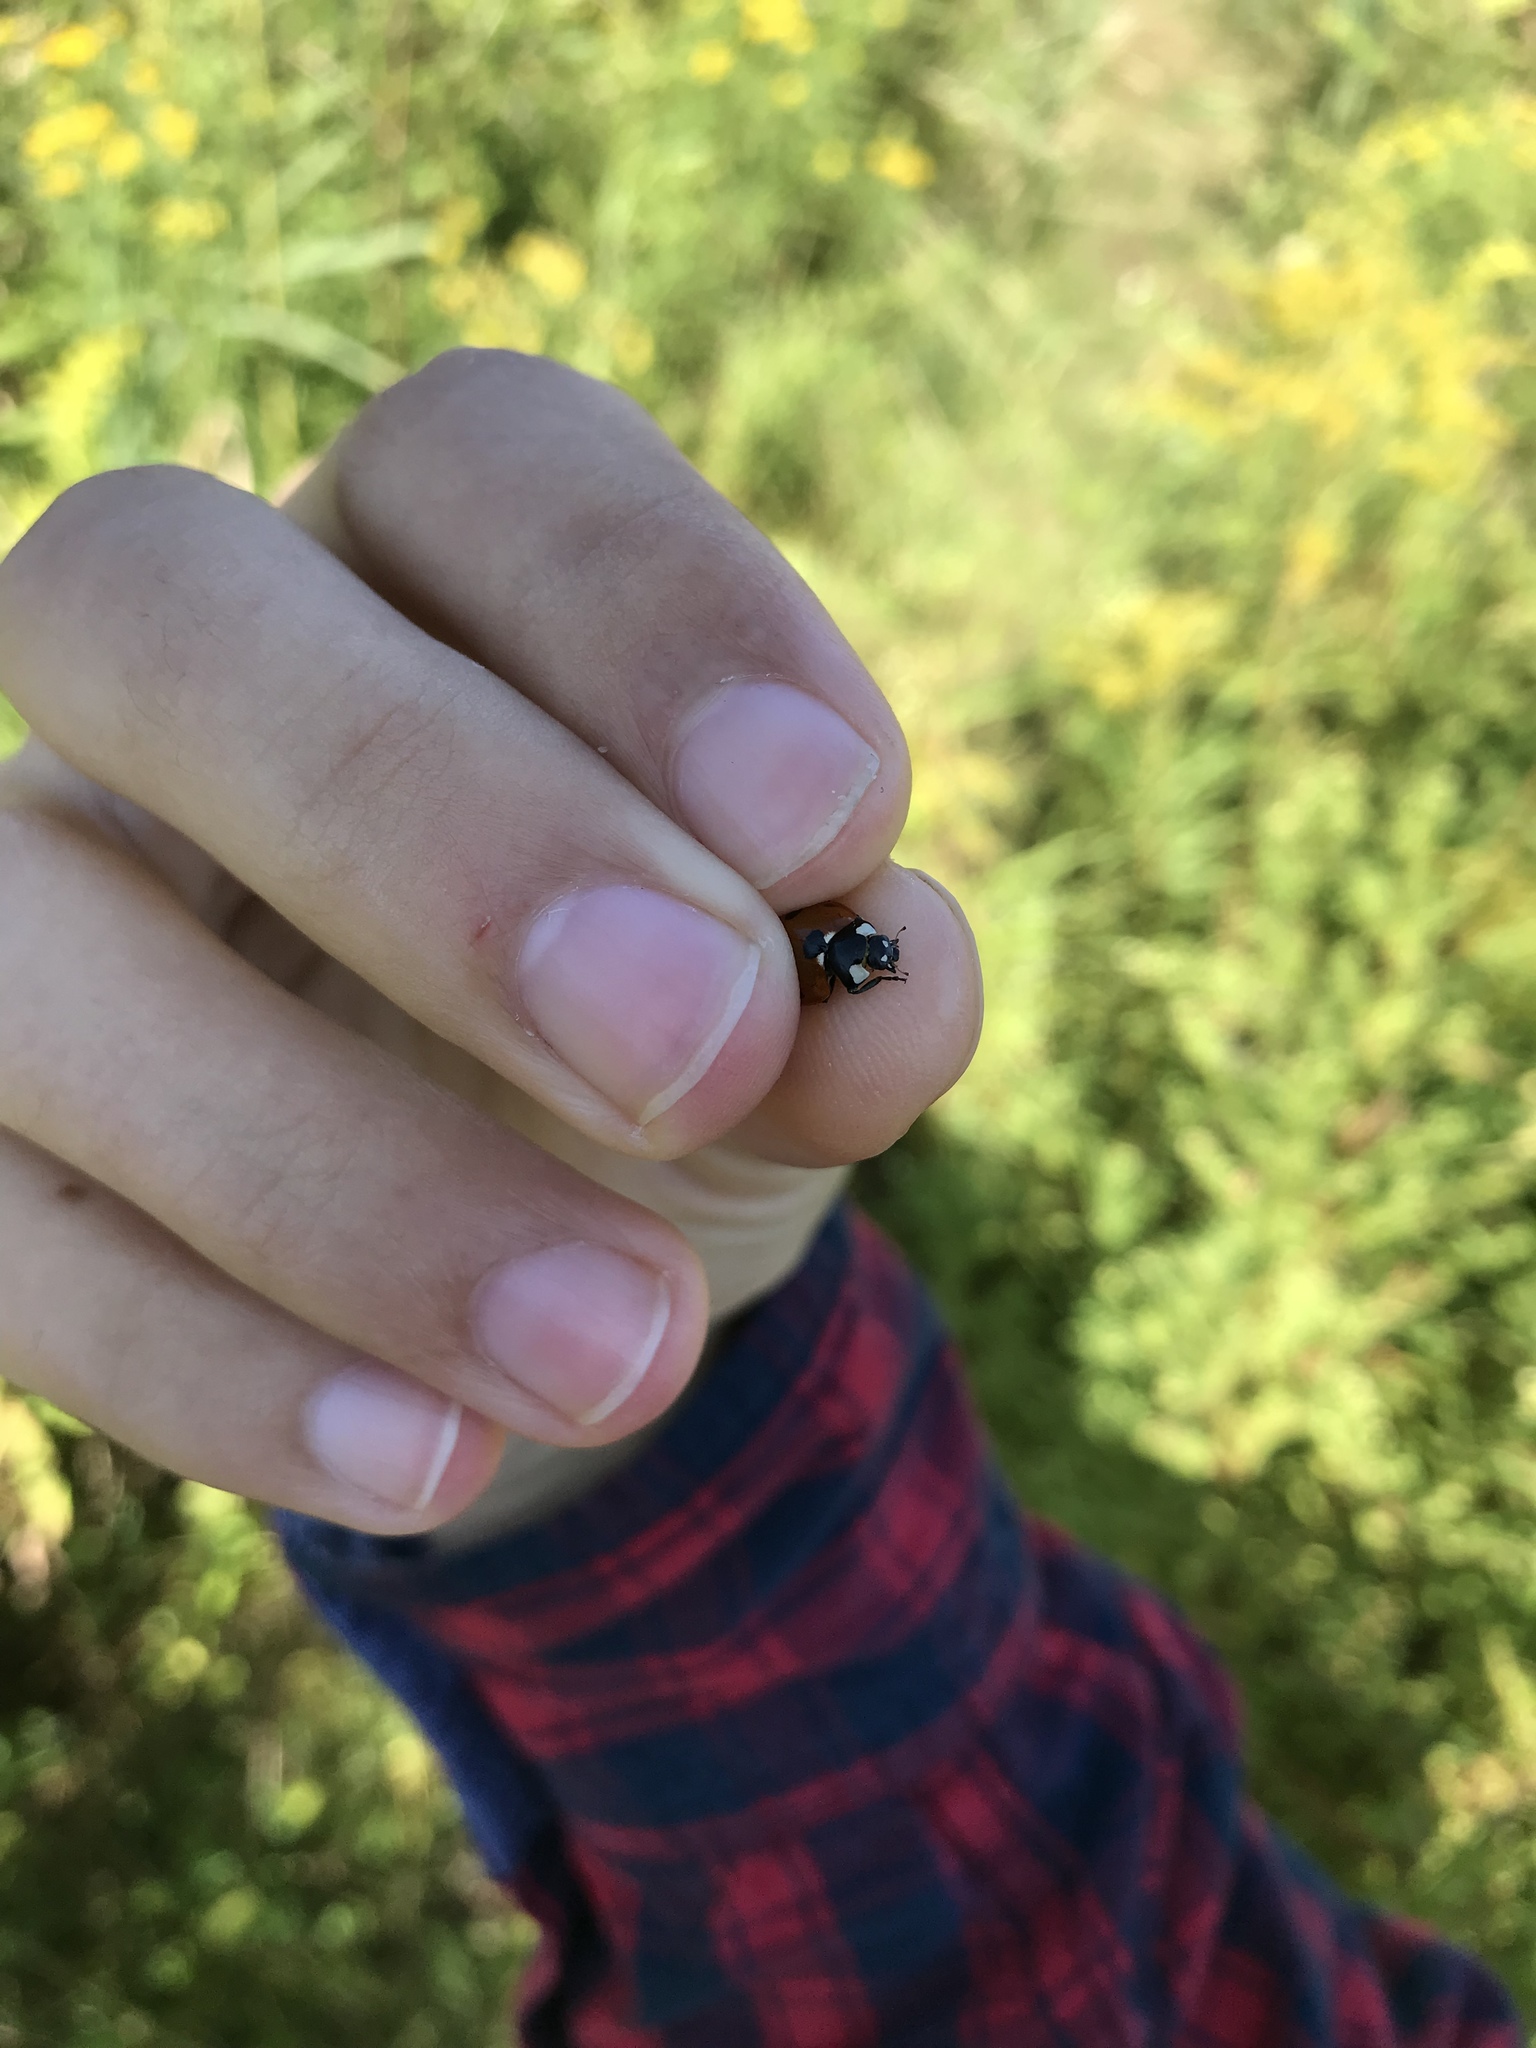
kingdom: Animalia
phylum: Arthropoda
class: Insecta
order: Coleoptera
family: Coccinellidae
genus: Coccinella
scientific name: Coccinella septempunctata
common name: Sevenspotted lady beetle
